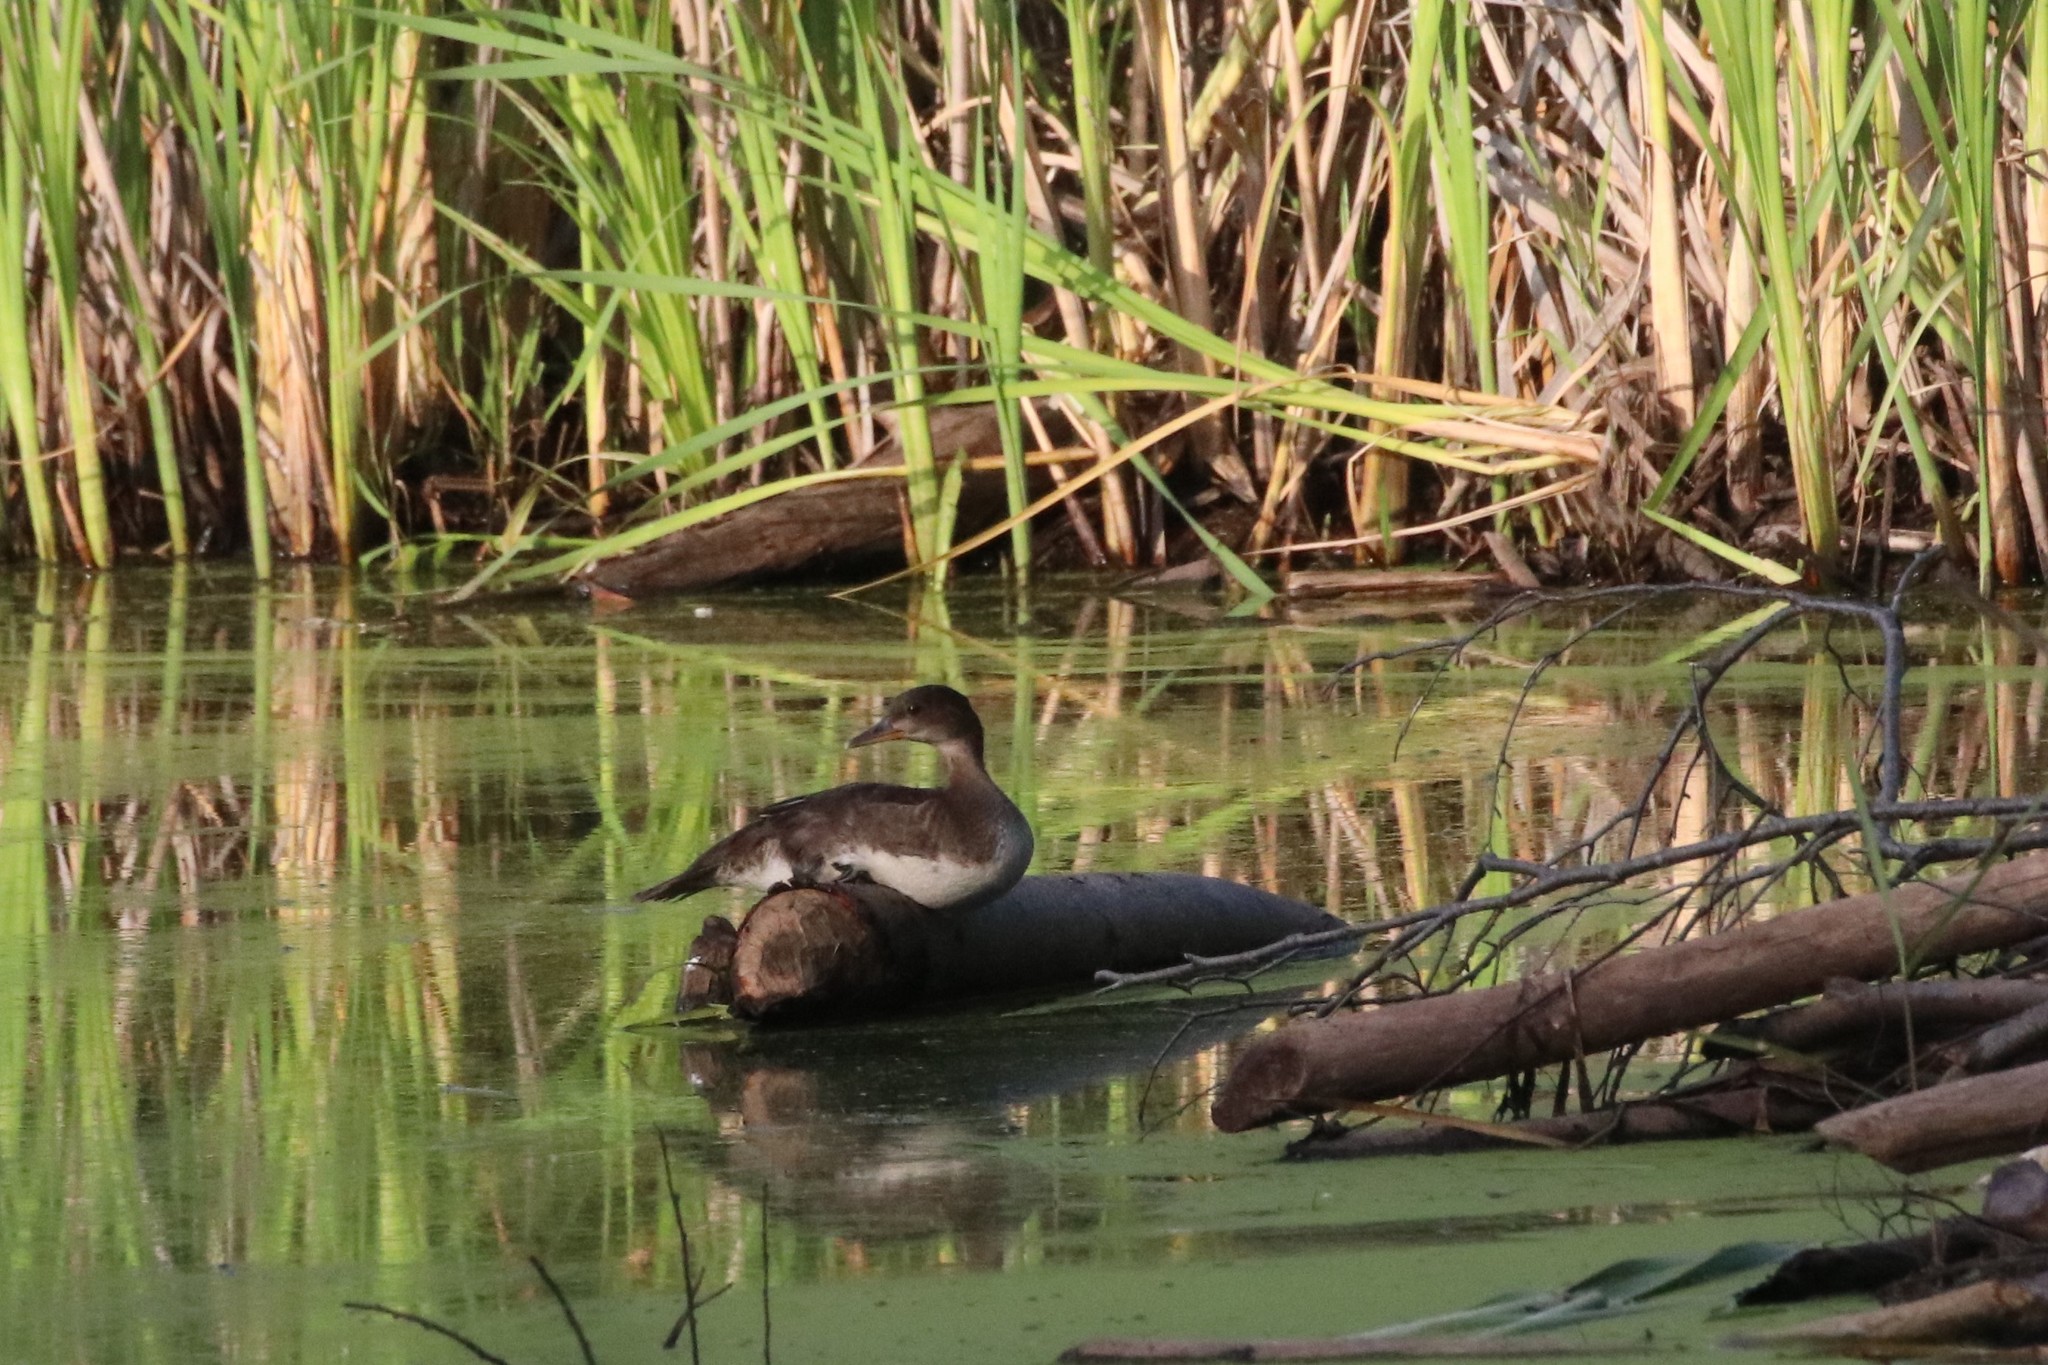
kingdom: Animalia
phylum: Chordata
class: Aves
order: Anseriformes
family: Anatidae
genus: Lophodytes
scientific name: Lophodytes cucullatus
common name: Hooded merganser
